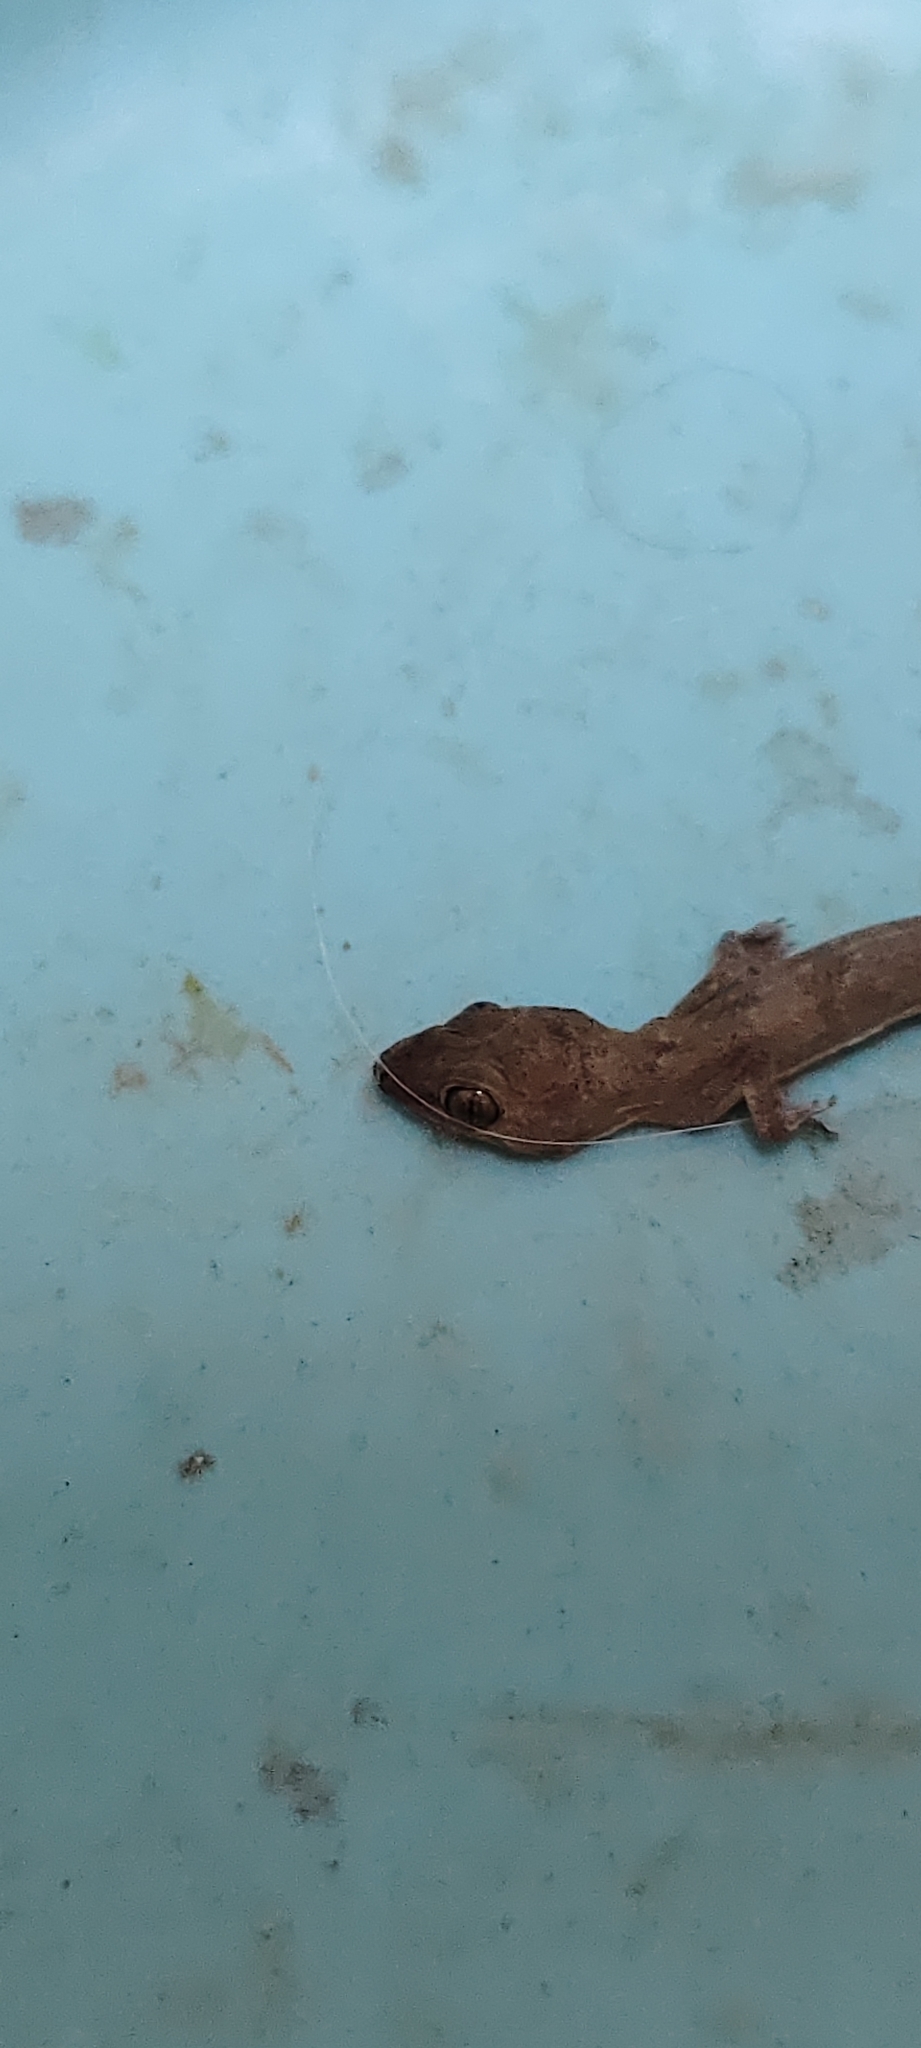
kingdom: Animalia
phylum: Chordata
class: Squamata
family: Gekkonidae
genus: Hemidactylus
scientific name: Hemidactylus frenatus
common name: Common house gecko
